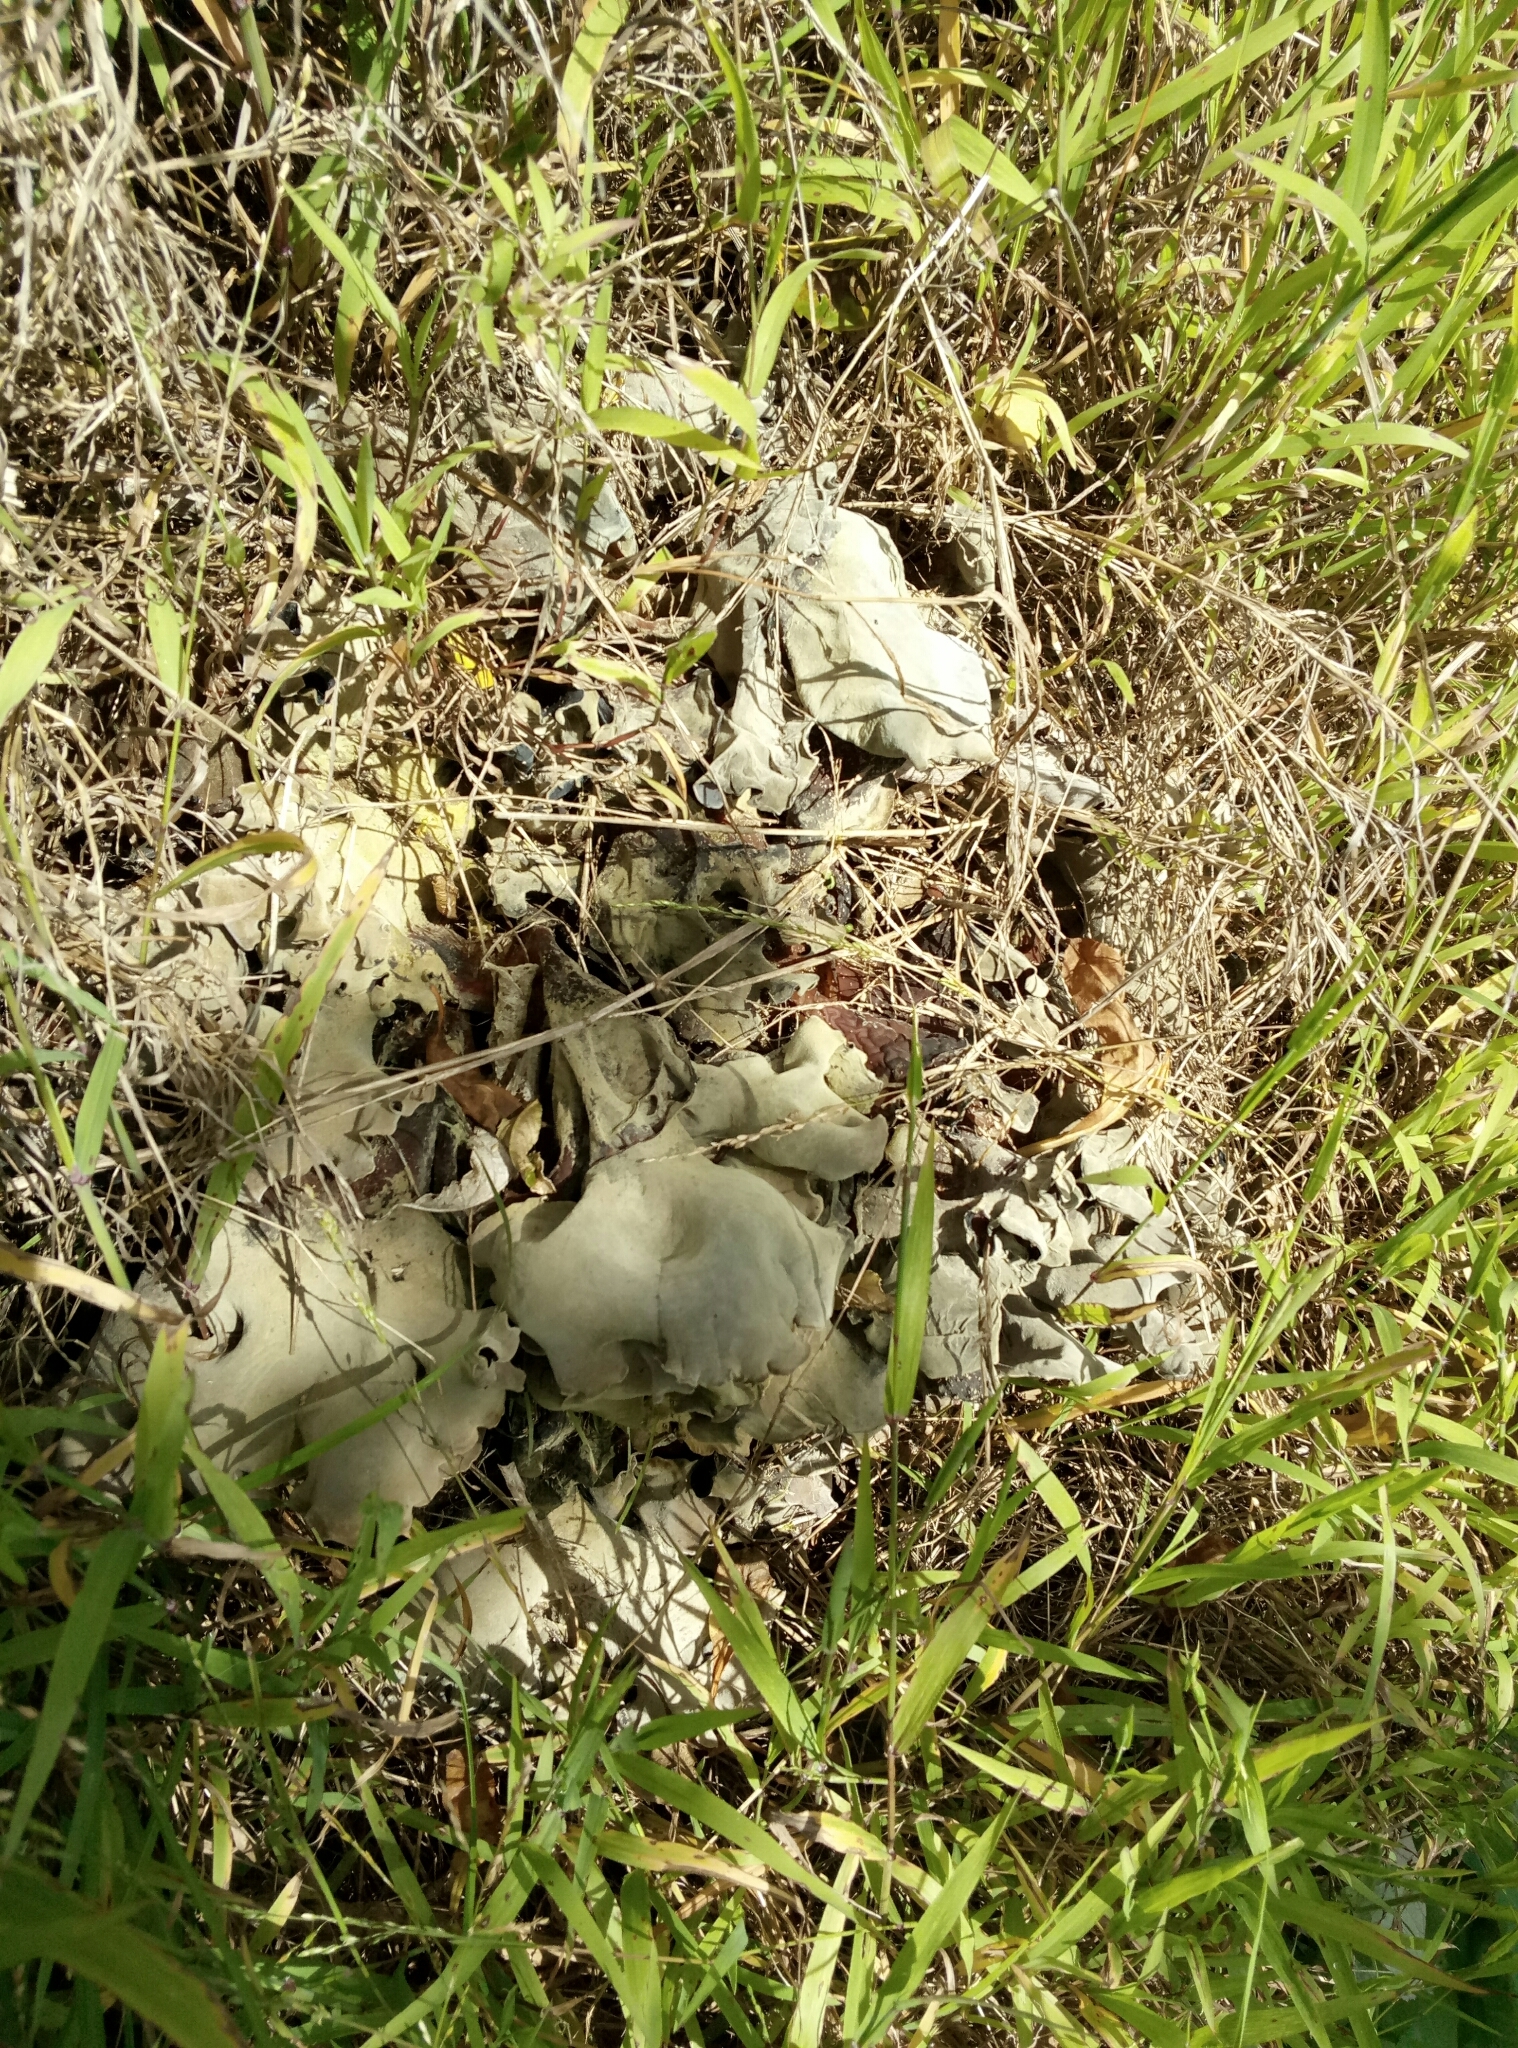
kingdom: Fungi
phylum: Basidiomycota
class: Agaricomycetes
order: Auriculariales
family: Auriculariaceae
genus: Auricularia
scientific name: Auricularia cornea
